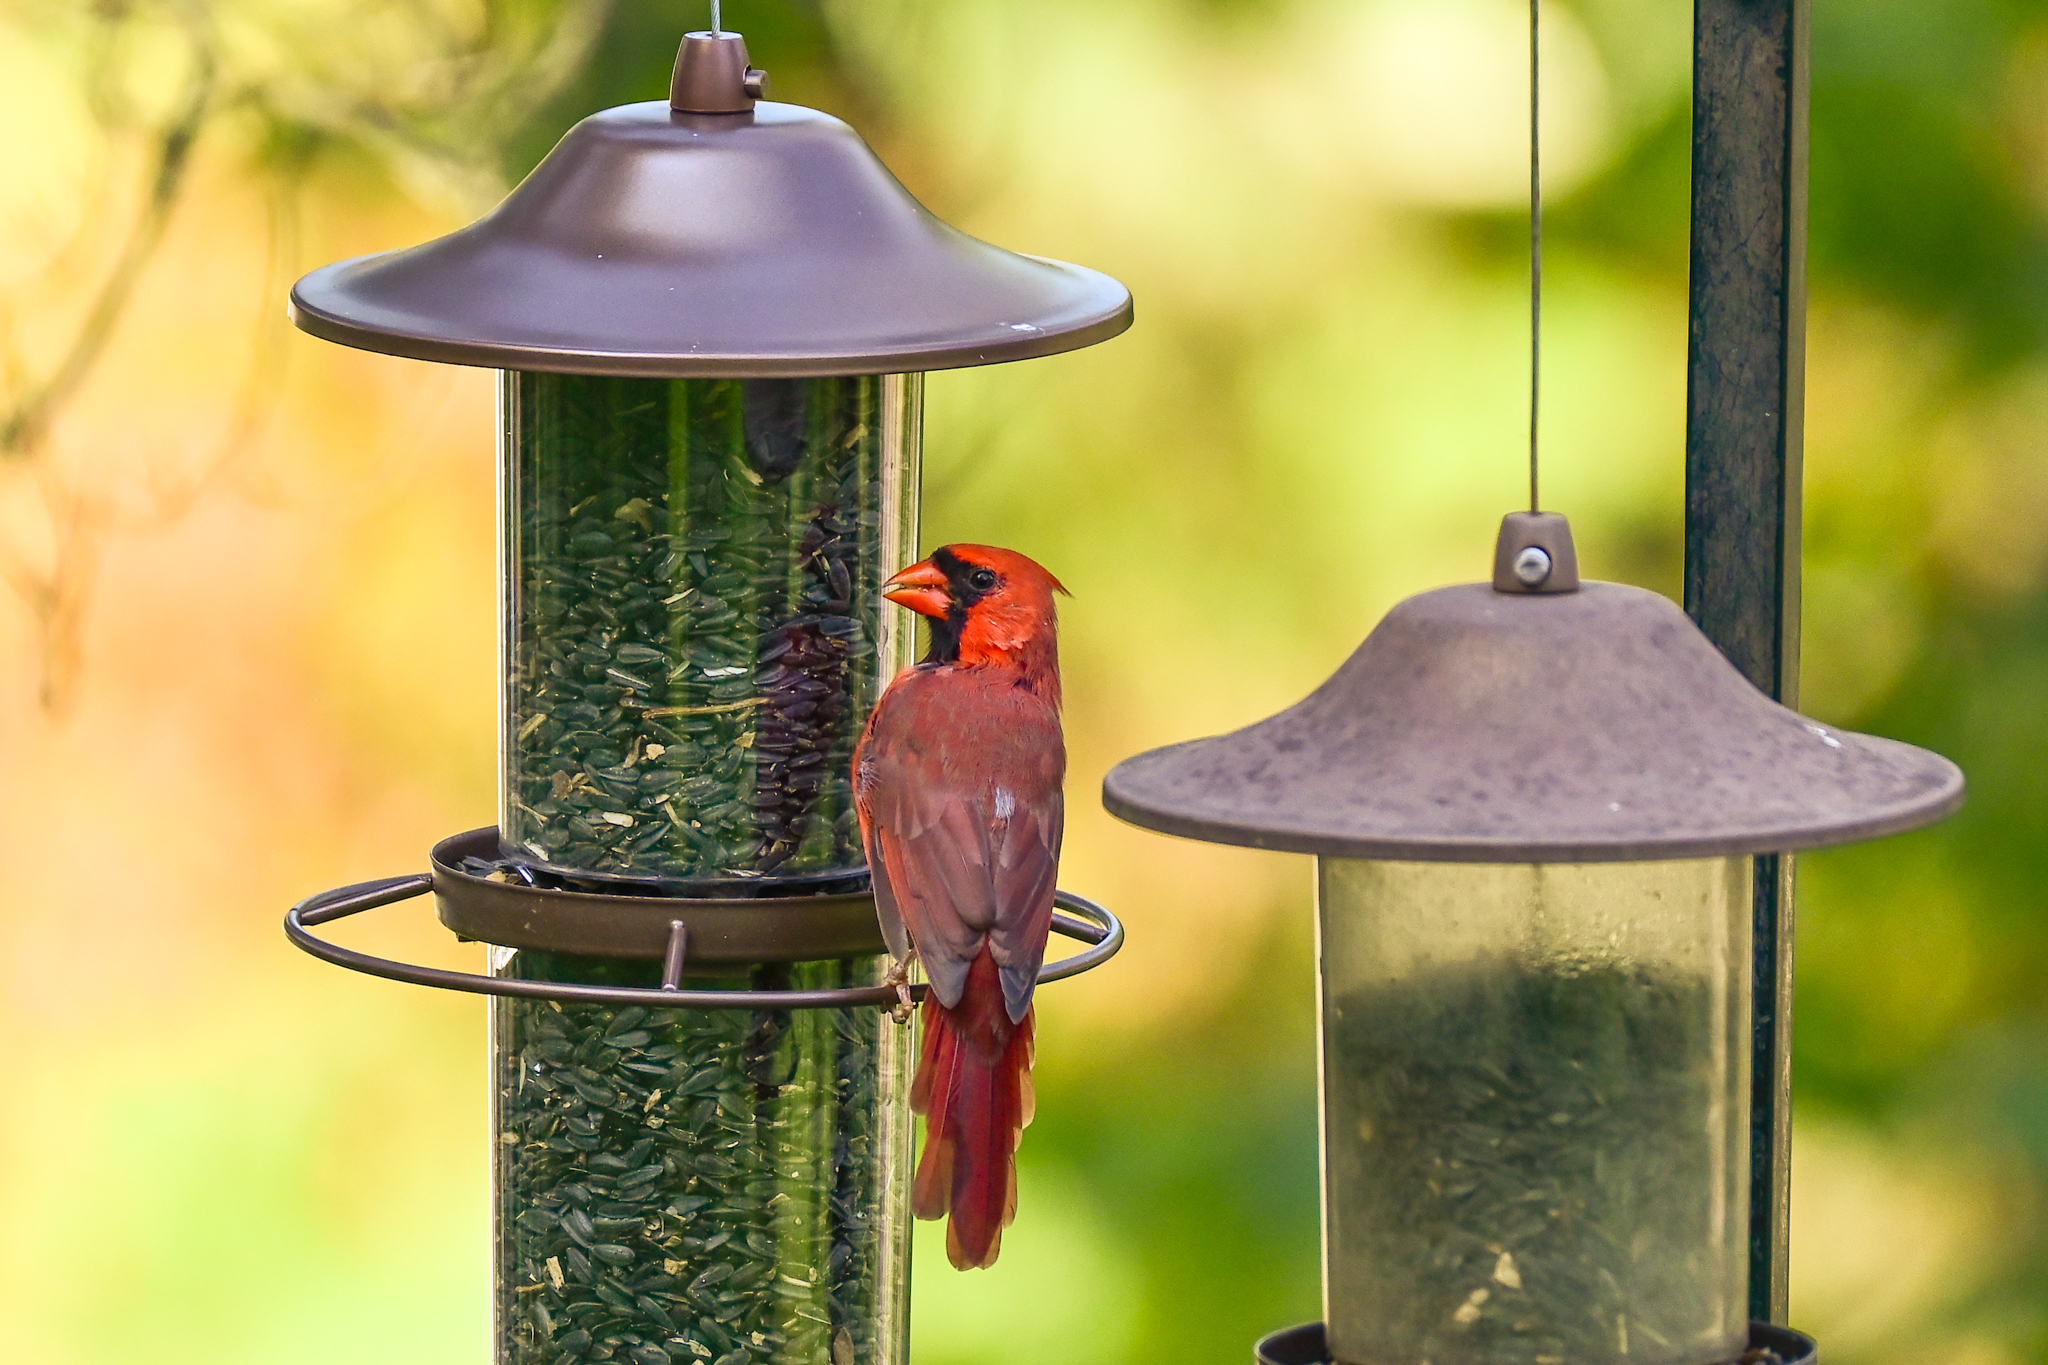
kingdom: Animalia
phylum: Chordata
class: Aves
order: Passeriformes
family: Cardinalidae
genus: Cardinalis
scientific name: Cardinalis cardinalis
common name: Northern cardinal
